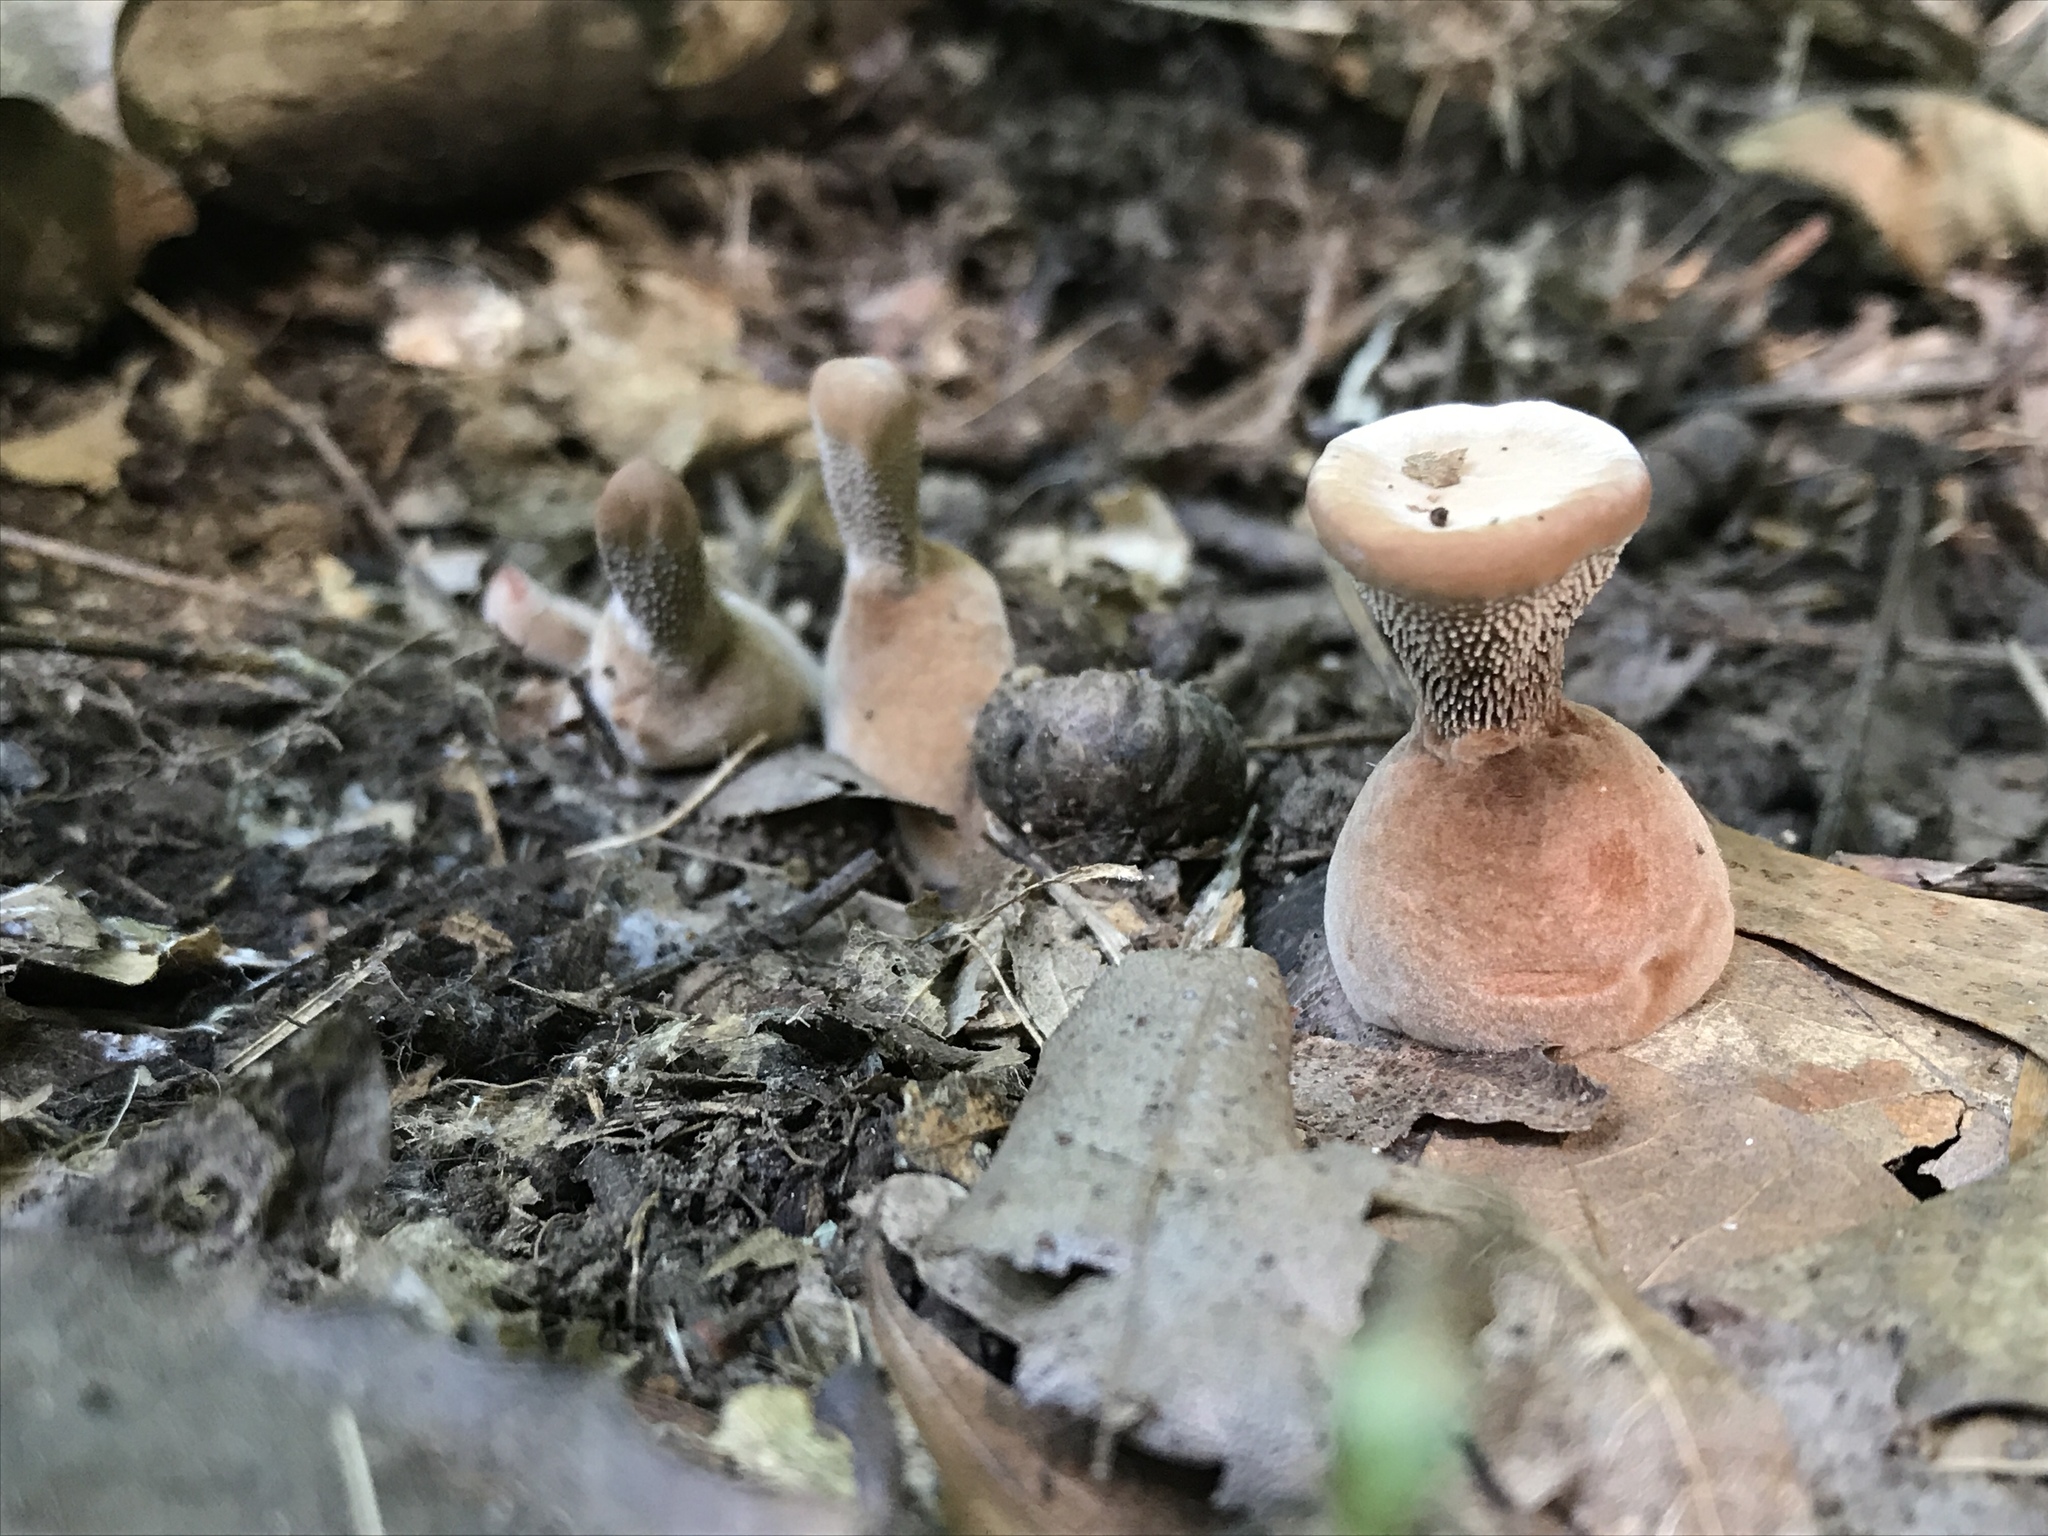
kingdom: Fungi
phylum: Basidiomycota
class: Agaricomycetes
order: Thelephorales
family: Bankeraceae
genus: Hydnellum
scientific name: Hydnellum spongiosipes
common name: Velvet tooth
